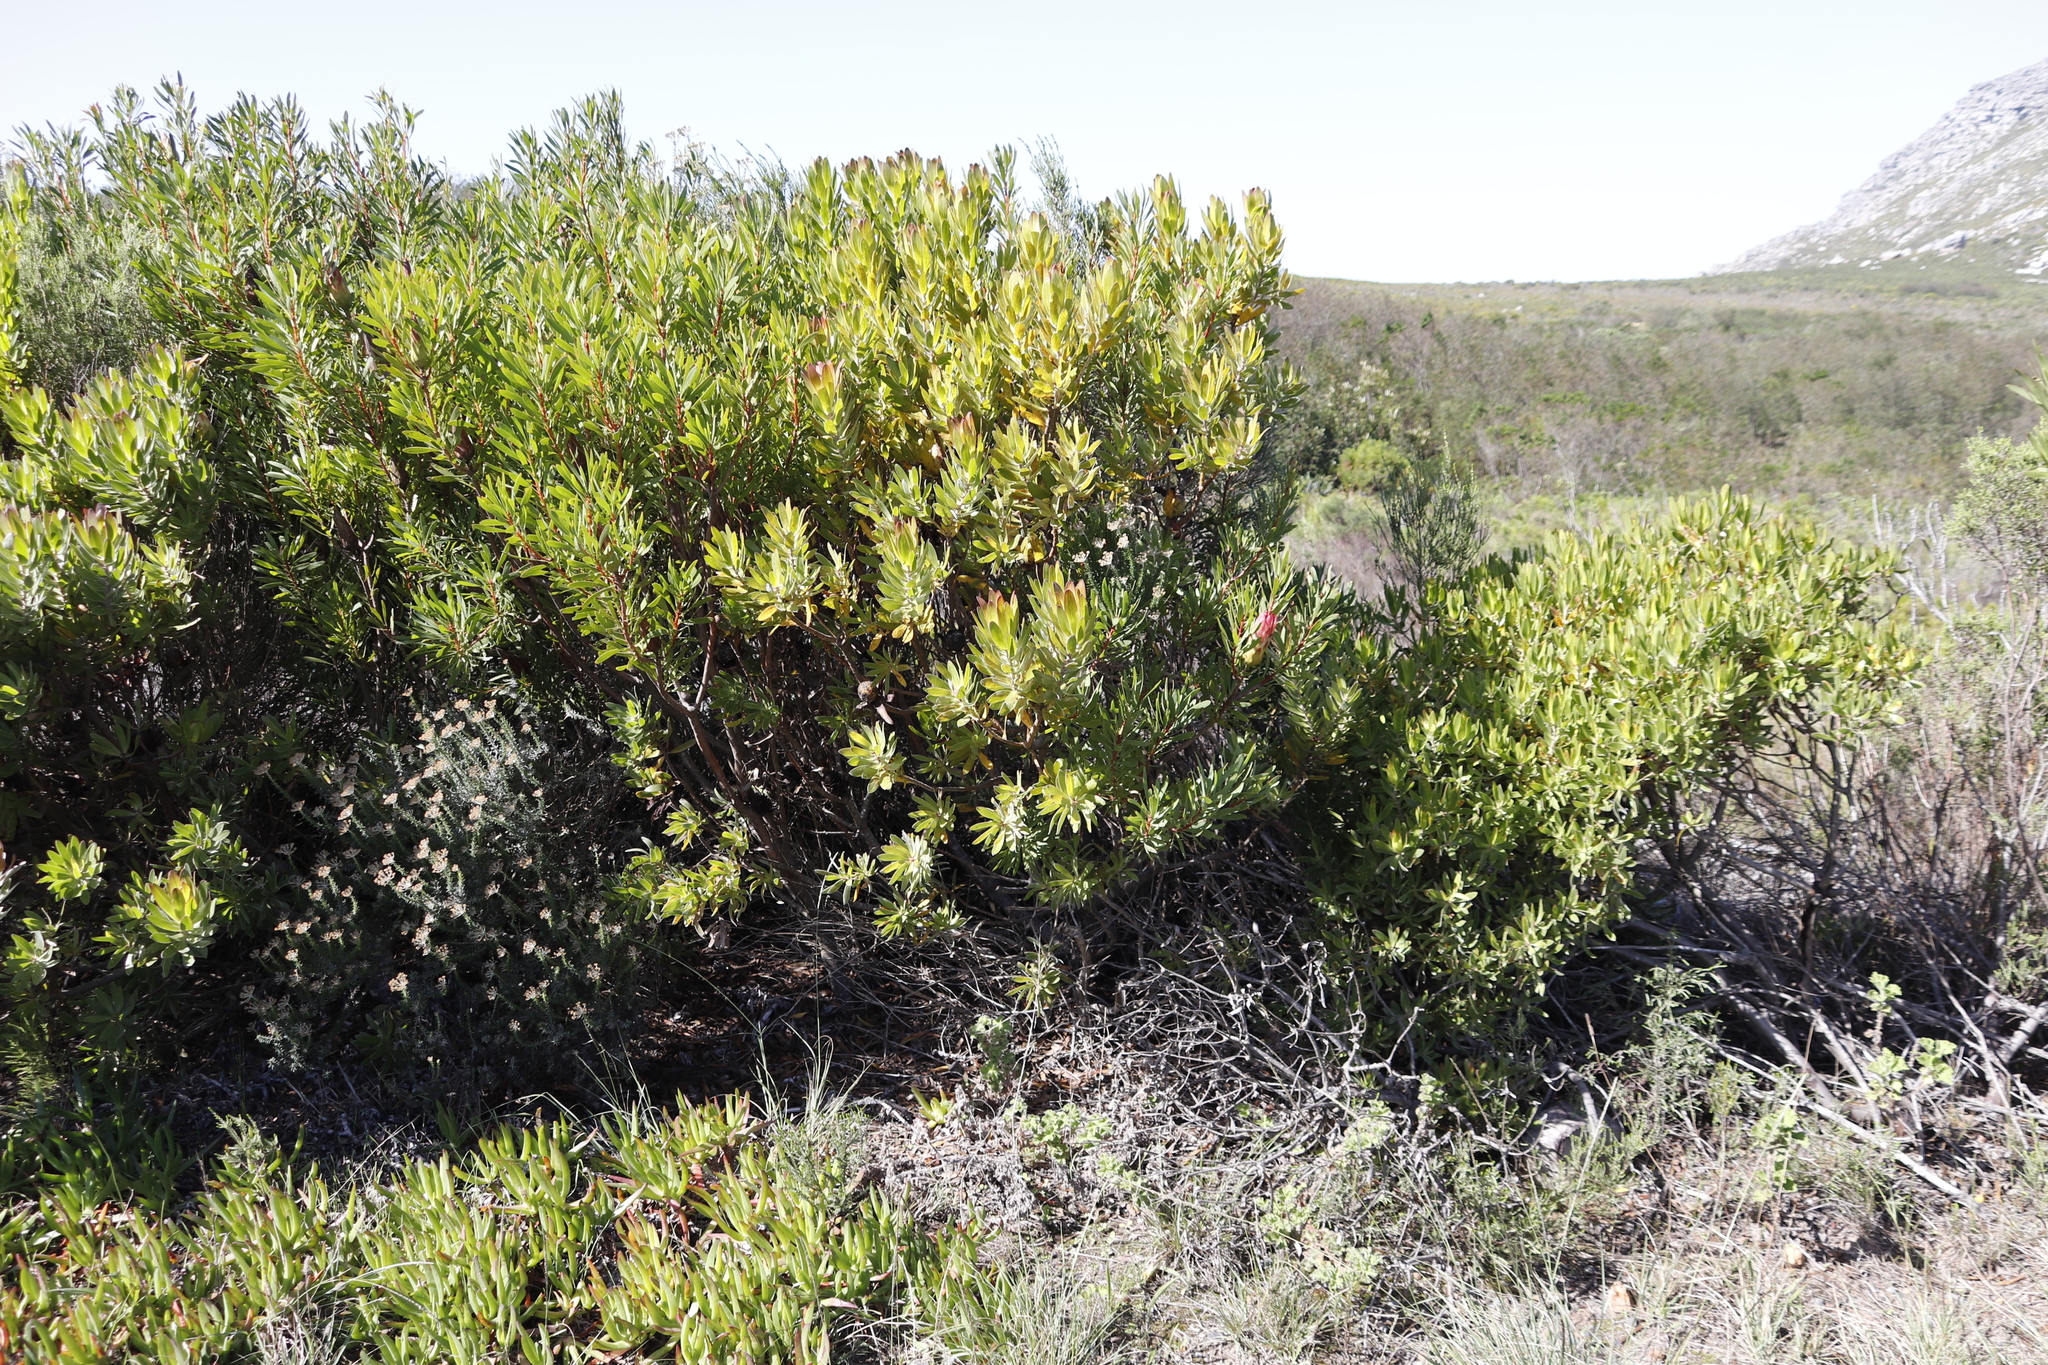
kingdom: Plantae
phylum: Tracheophyta
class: Magnoliopsida
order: Proteales
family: Proteaceae
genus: Protea
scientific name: Protea repens
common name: Sugarbush
